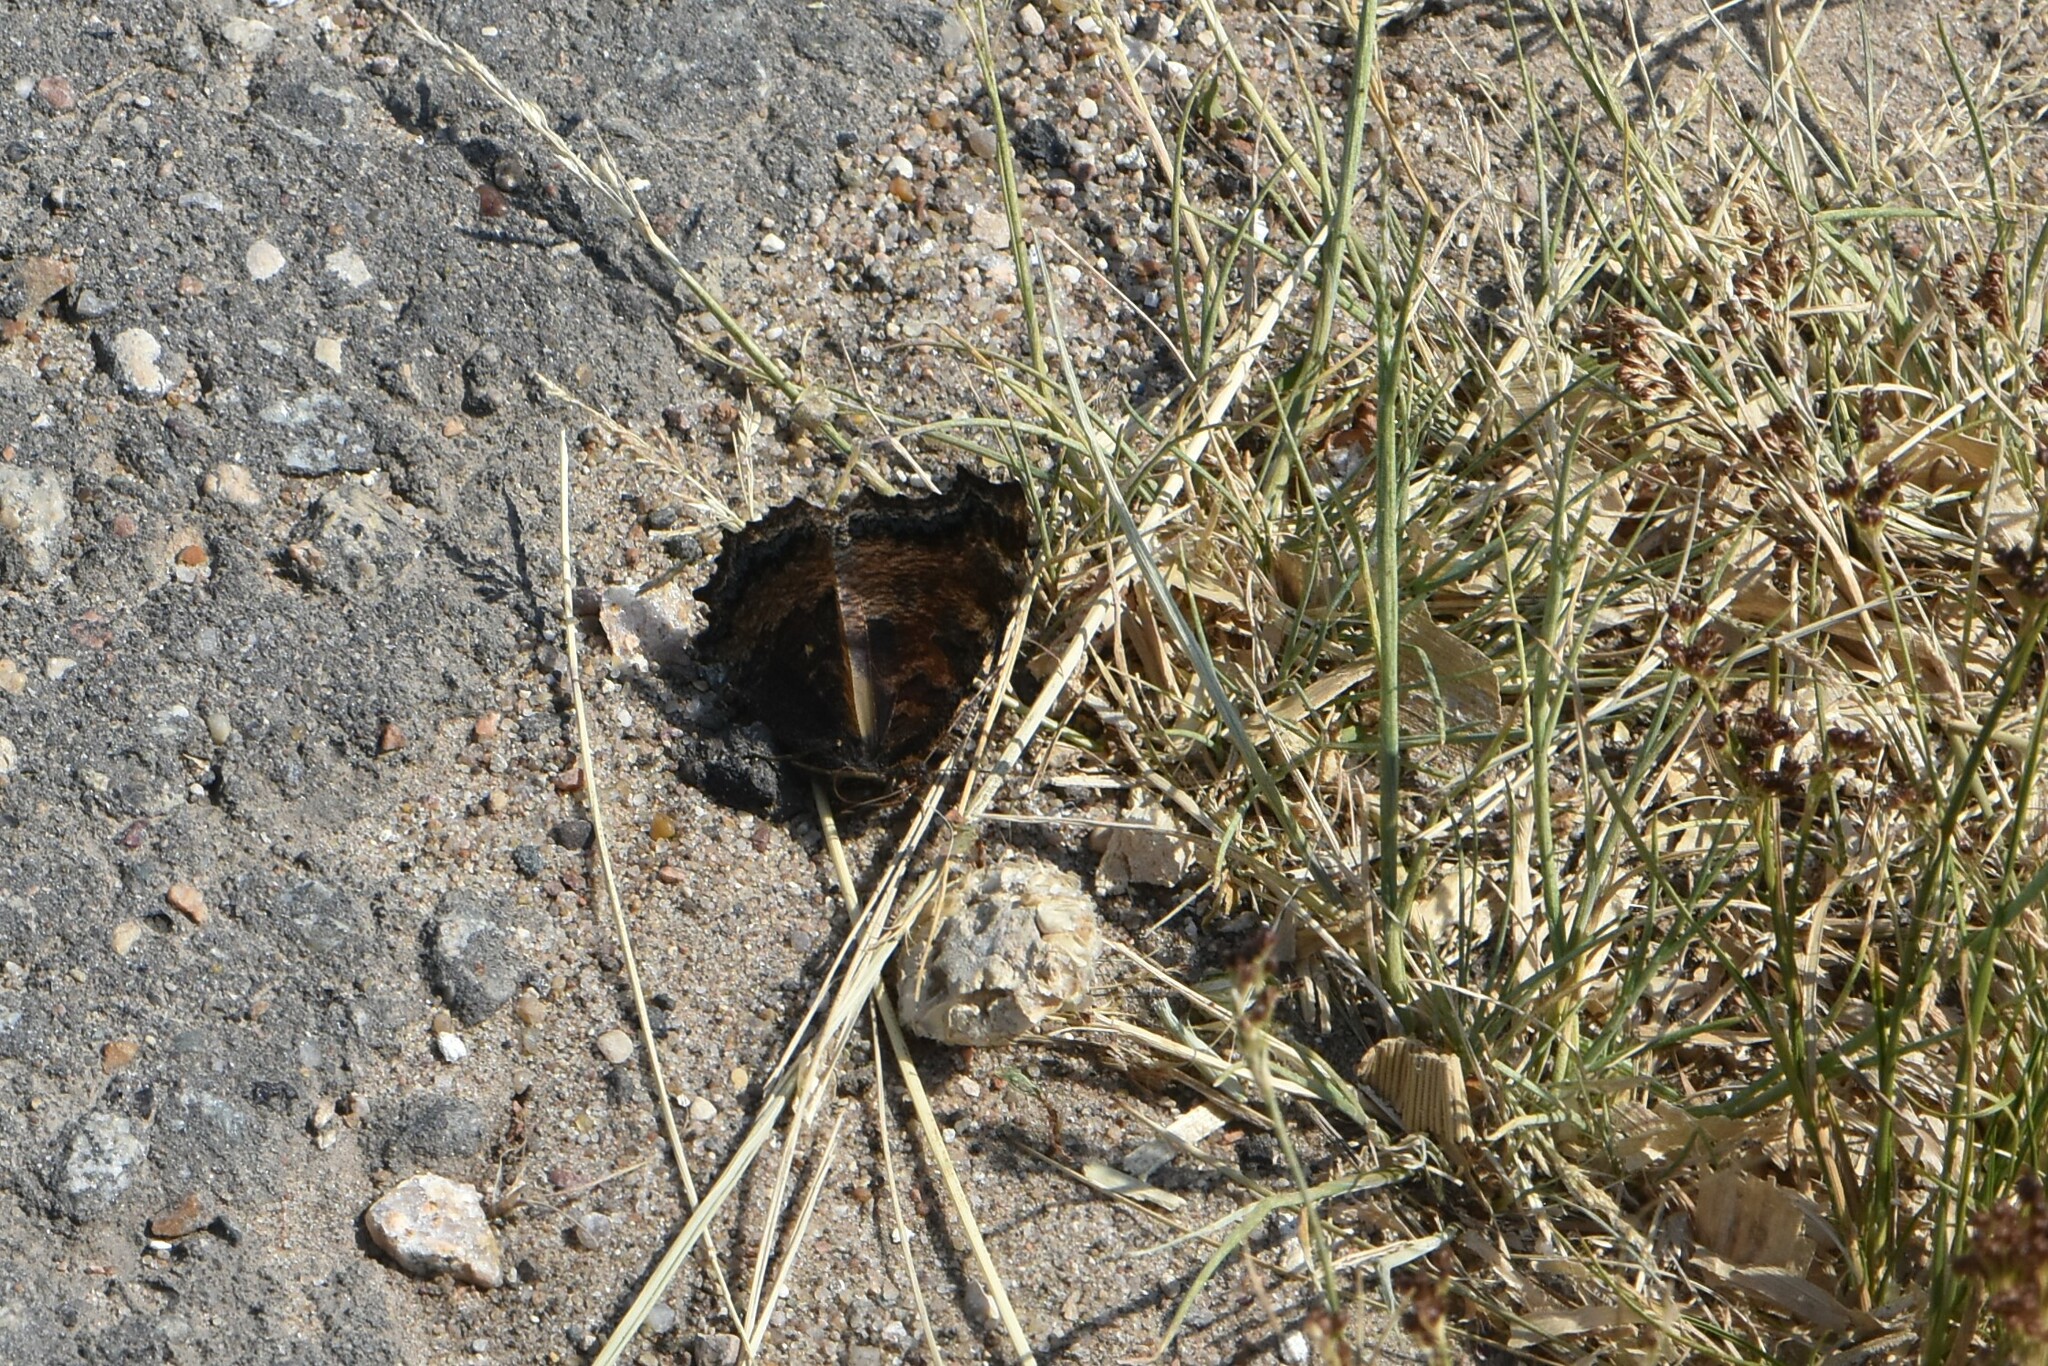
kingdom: Animalia
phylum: Arthropoda
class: Insecta
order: Lepidoptera
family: Nymphalidae
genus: Nymphalis
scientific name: Nymphalis xanthomelas
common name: Scarce tortoiseshell
